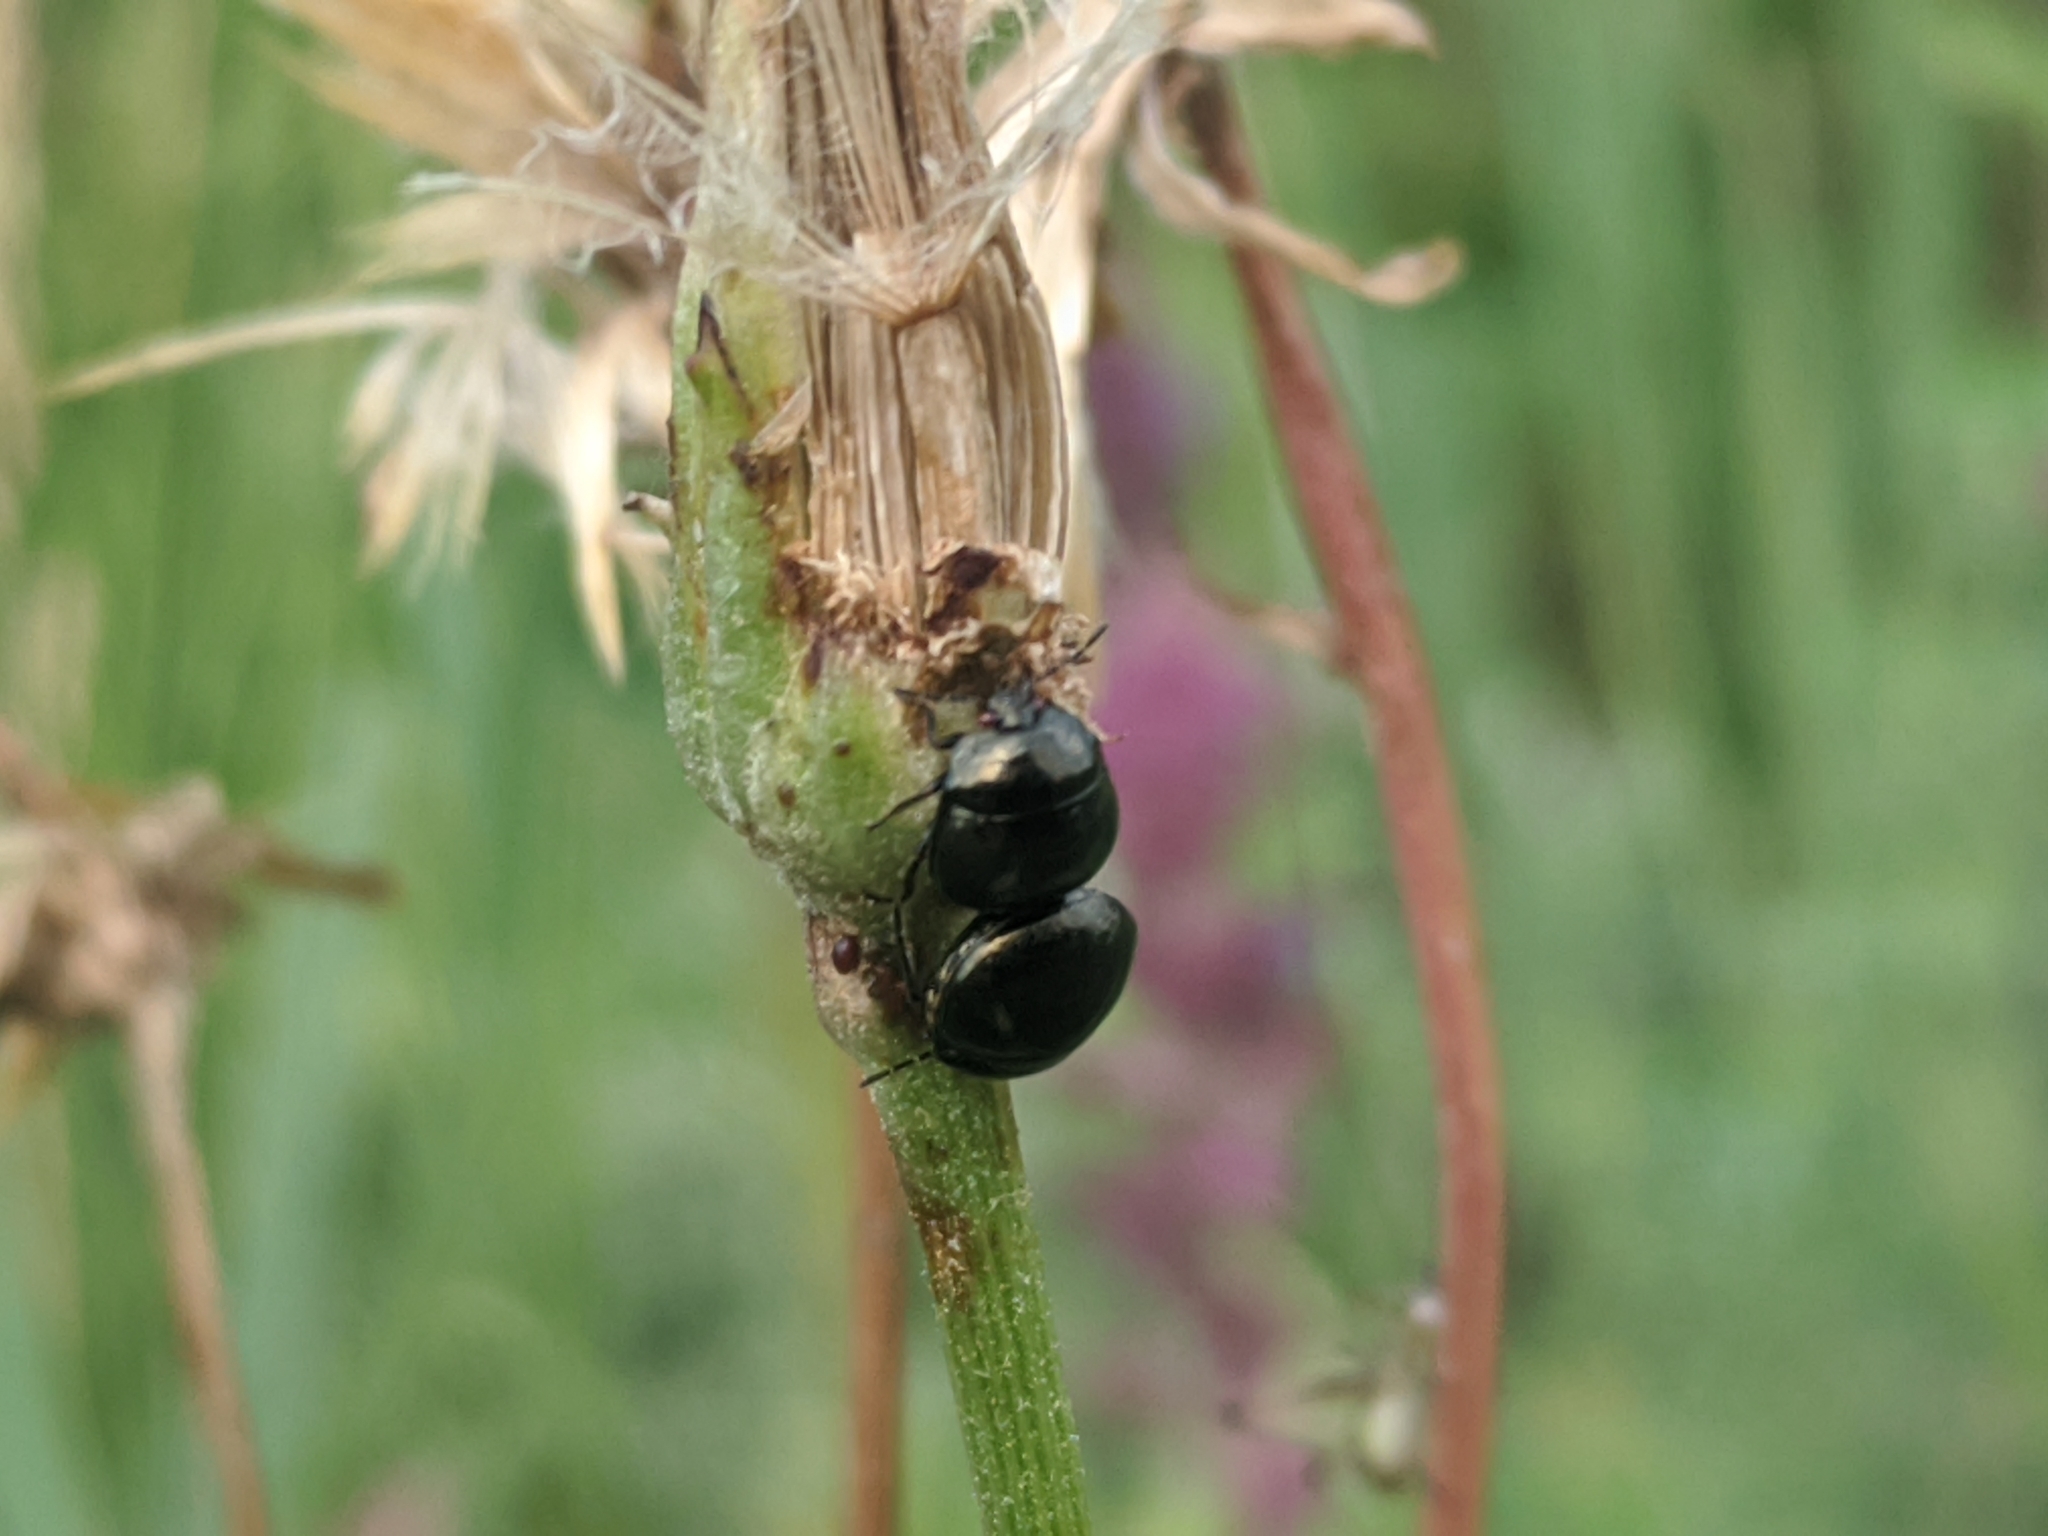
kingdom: Animalia
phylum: Arthropoda
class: Insecta
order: Hemiptera
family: Plataspidae
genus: Coptosoma
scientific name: Coptosoma scutellatum
